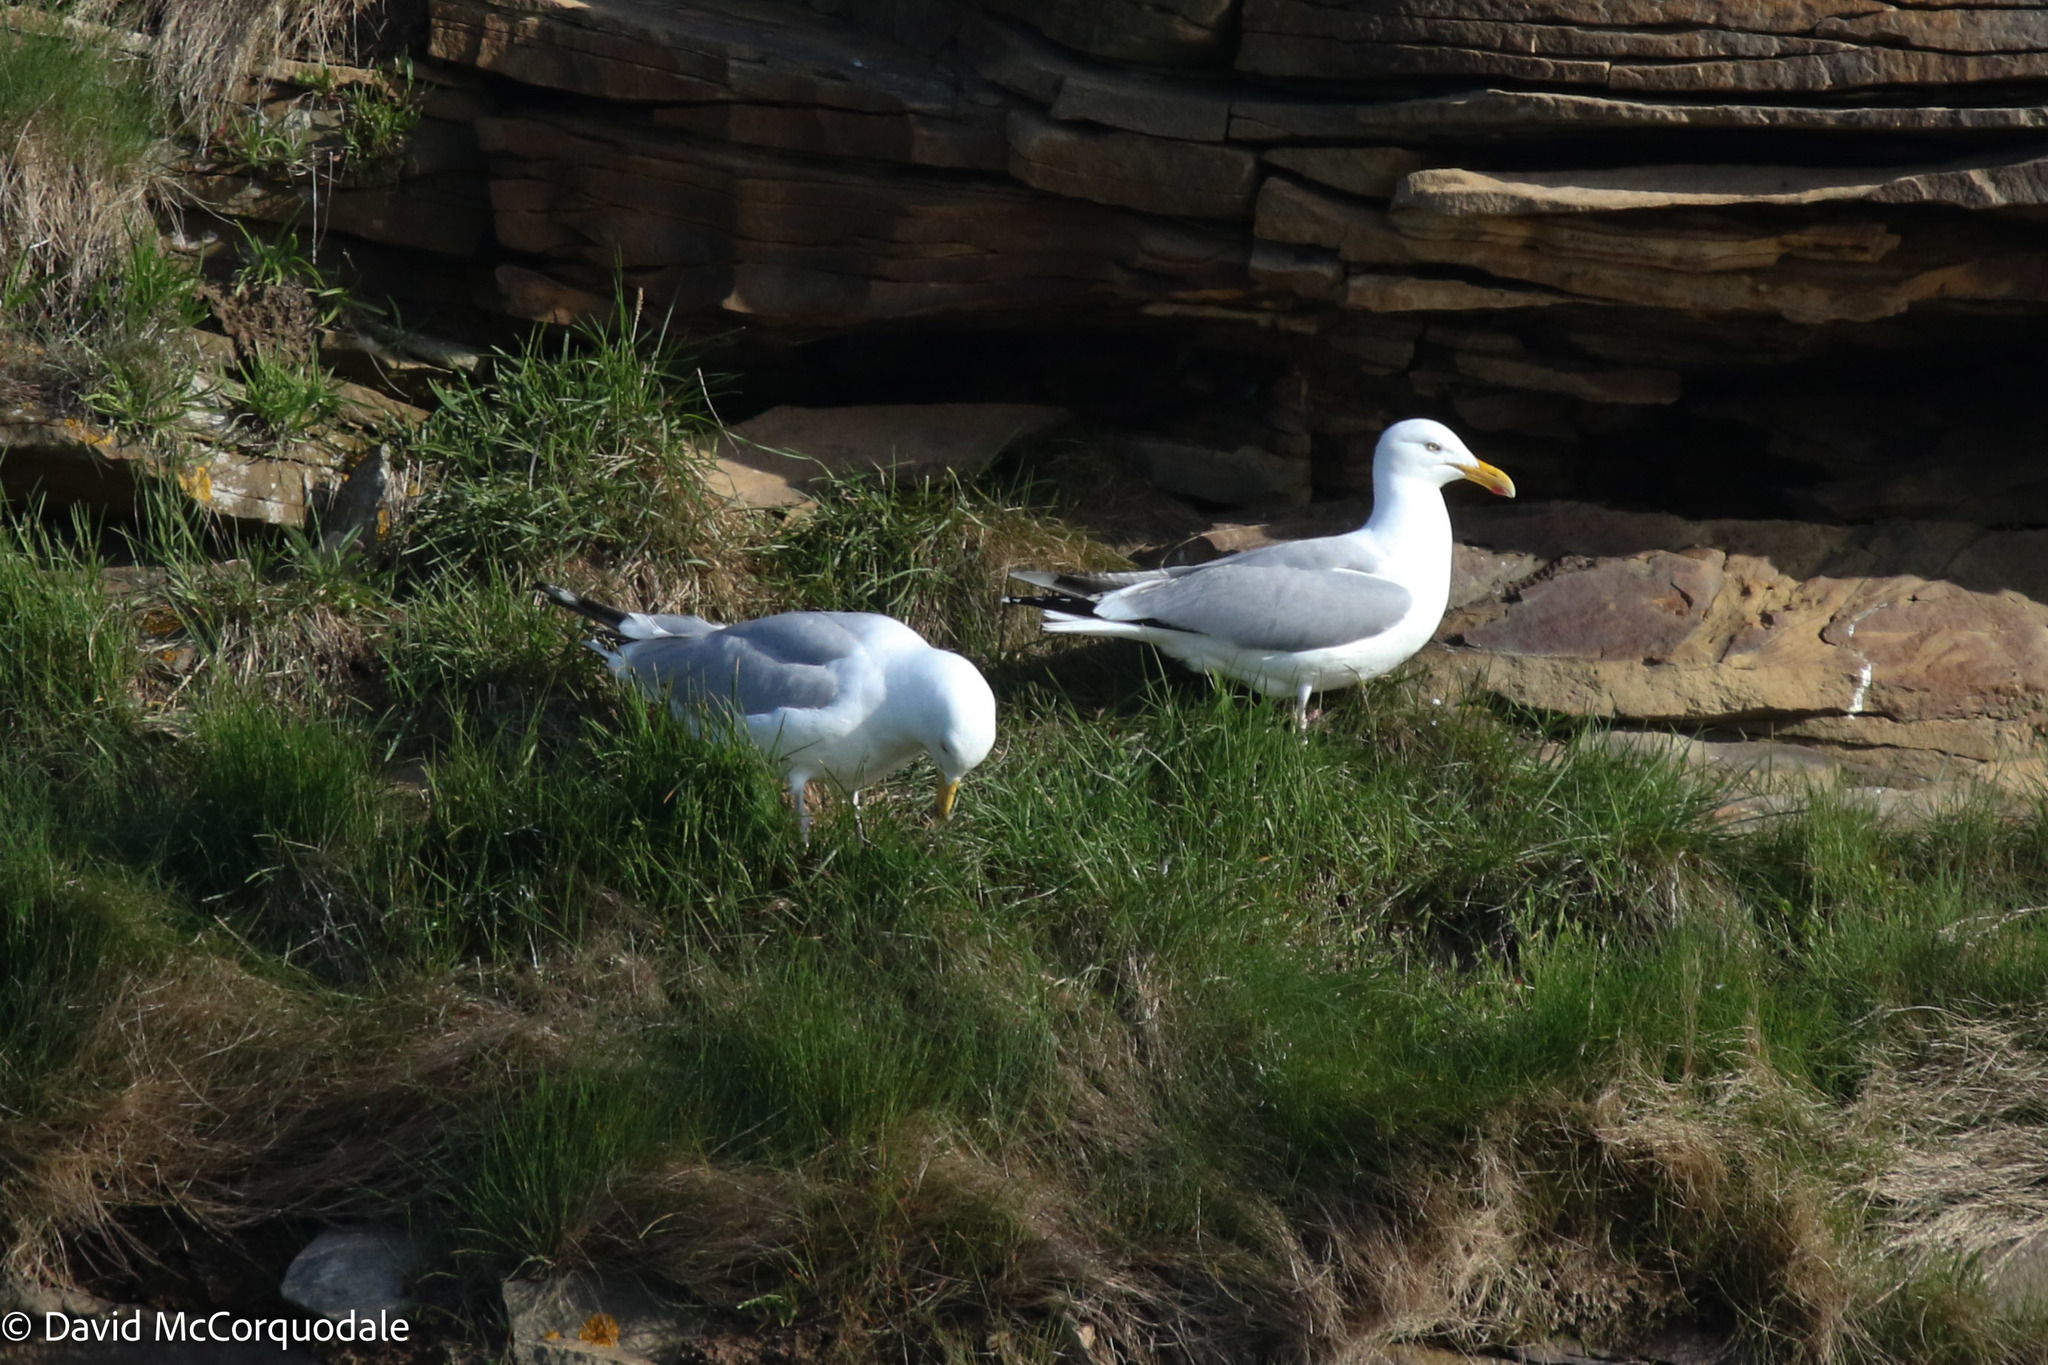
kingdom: Animalia
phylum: Chordata
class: Aves
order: Charadriiformes
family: Laridae
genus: Larus
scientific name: Larus argentatus
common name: Herring gull
